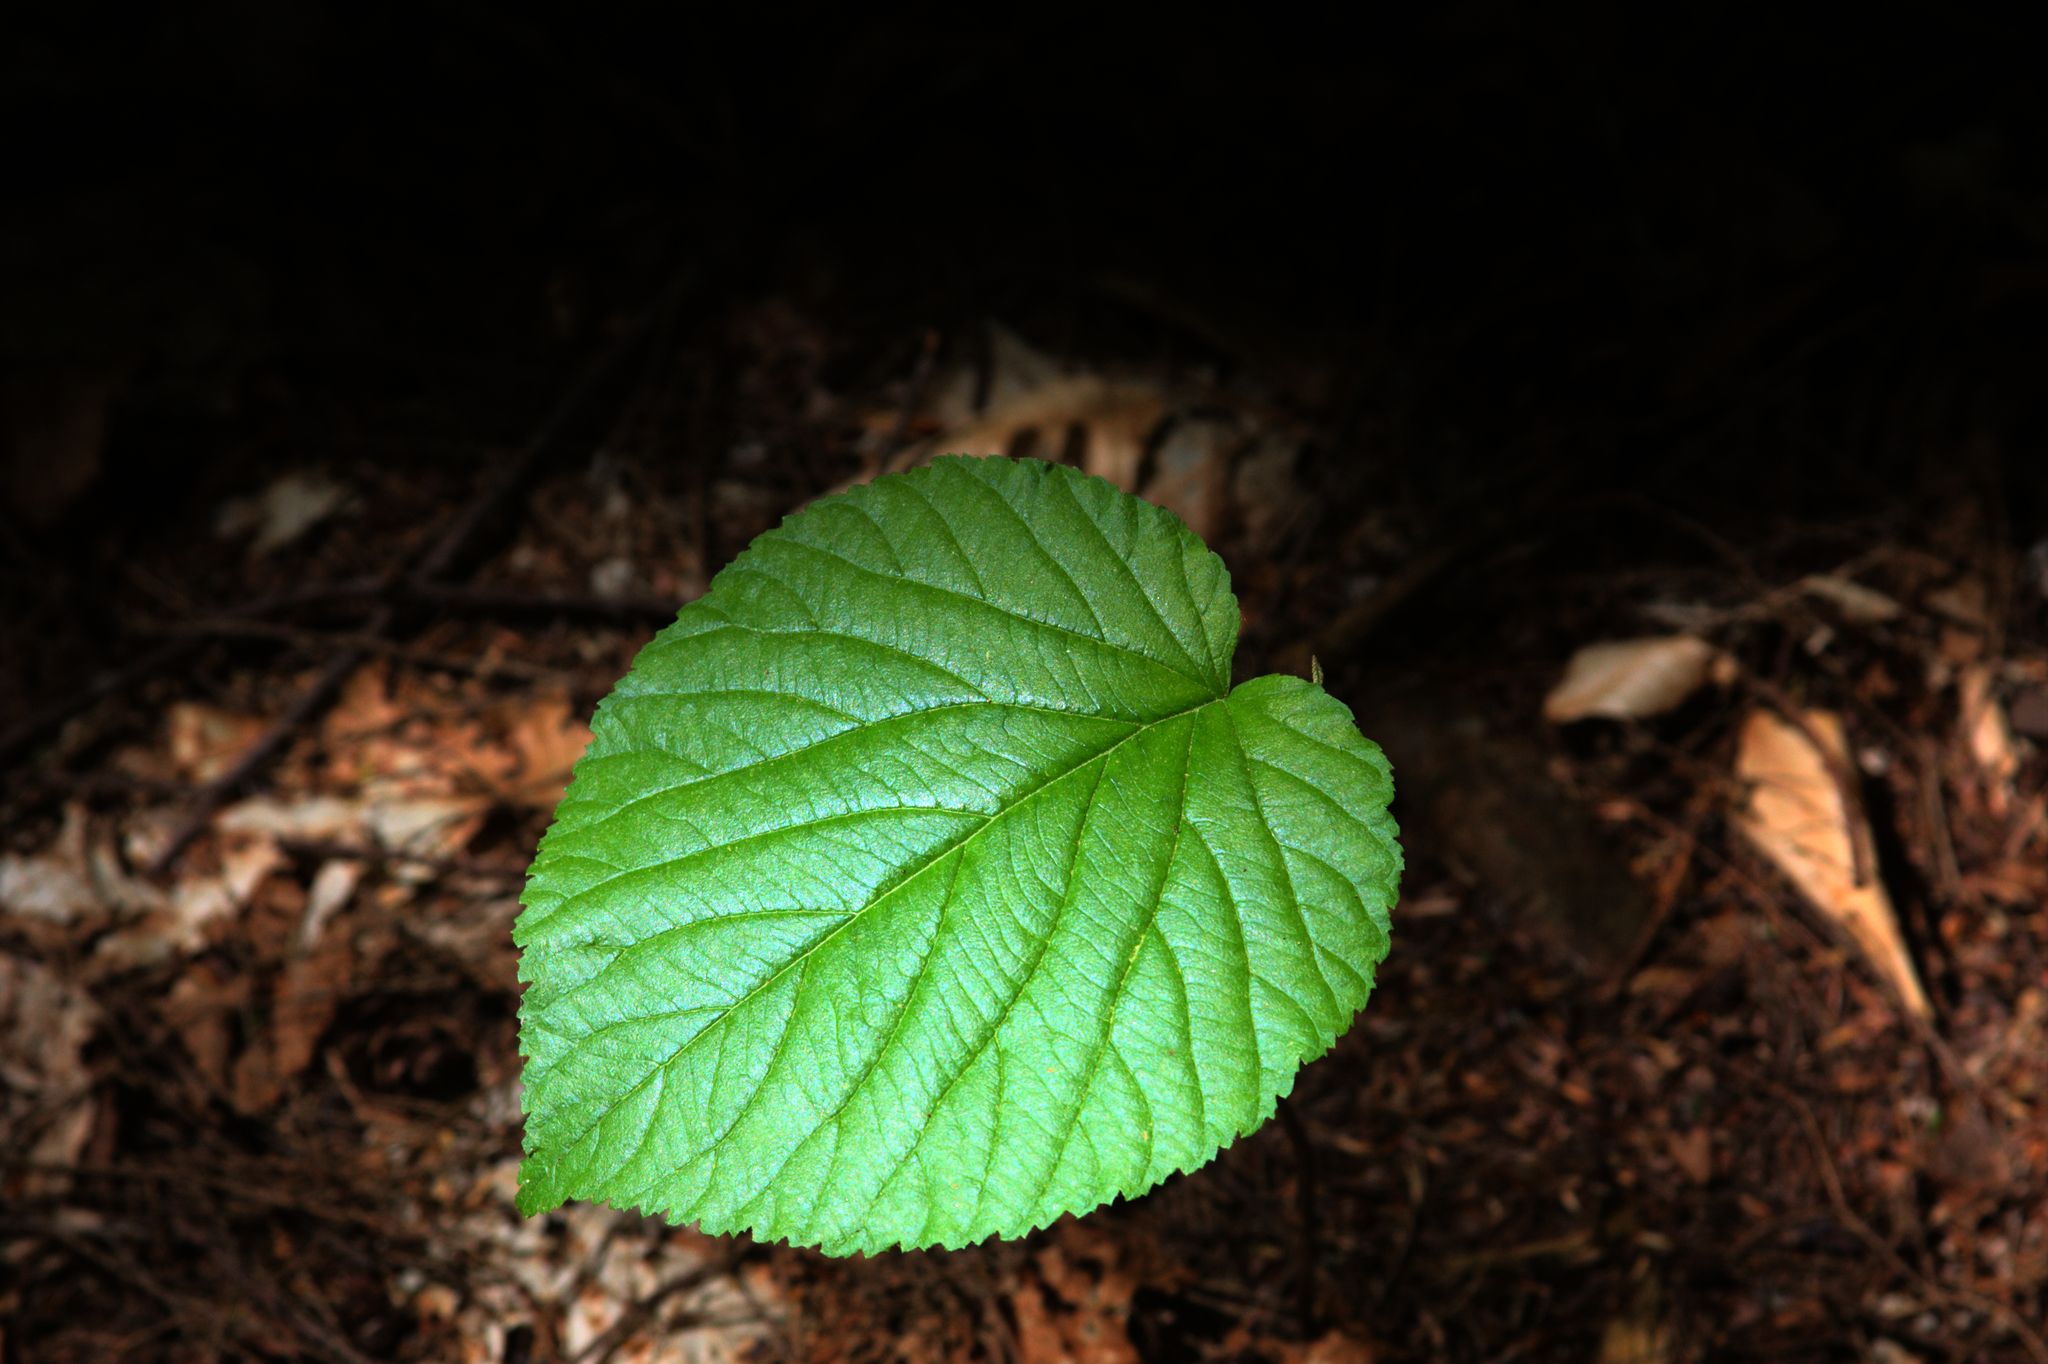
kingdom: Plantae
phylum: Tracheophyta
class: Magnoliopsida
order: Dipsacales
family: Viburnaceae
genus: Viburnum
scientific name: Viburnum lantanoides
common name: Hobblebush
